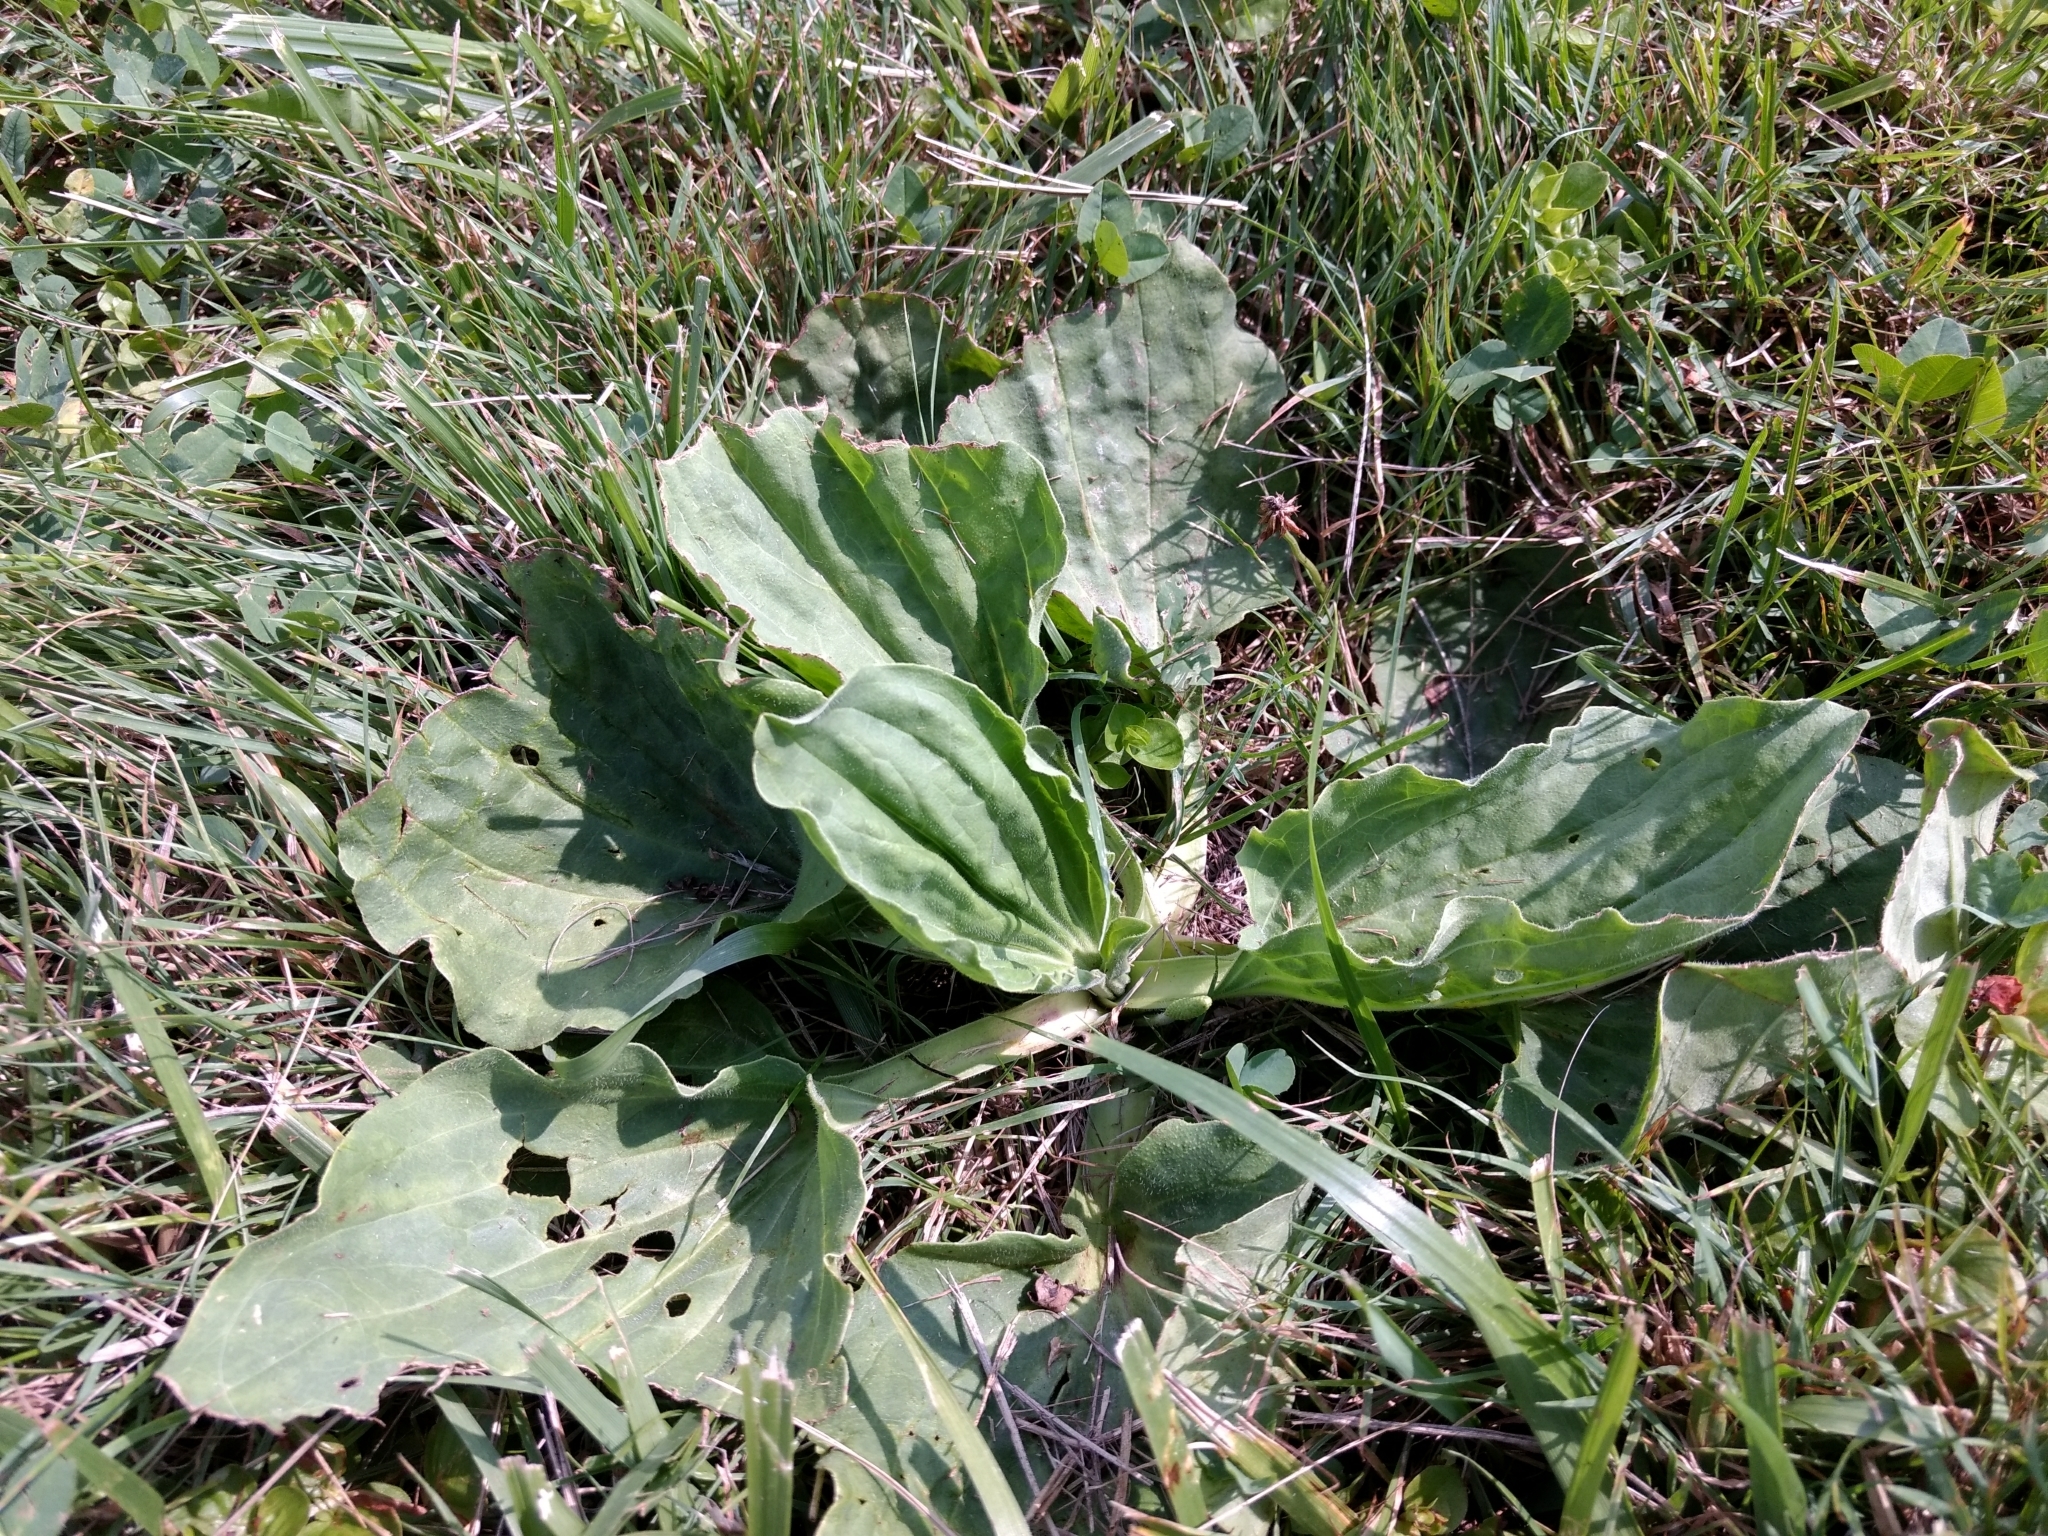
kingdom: Plantae
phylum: Tracheophyta
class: Magnoliopsida
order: Lamiales
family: Plantaginaceae
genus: Plantago
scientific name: Plantago major
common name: Common plantain
